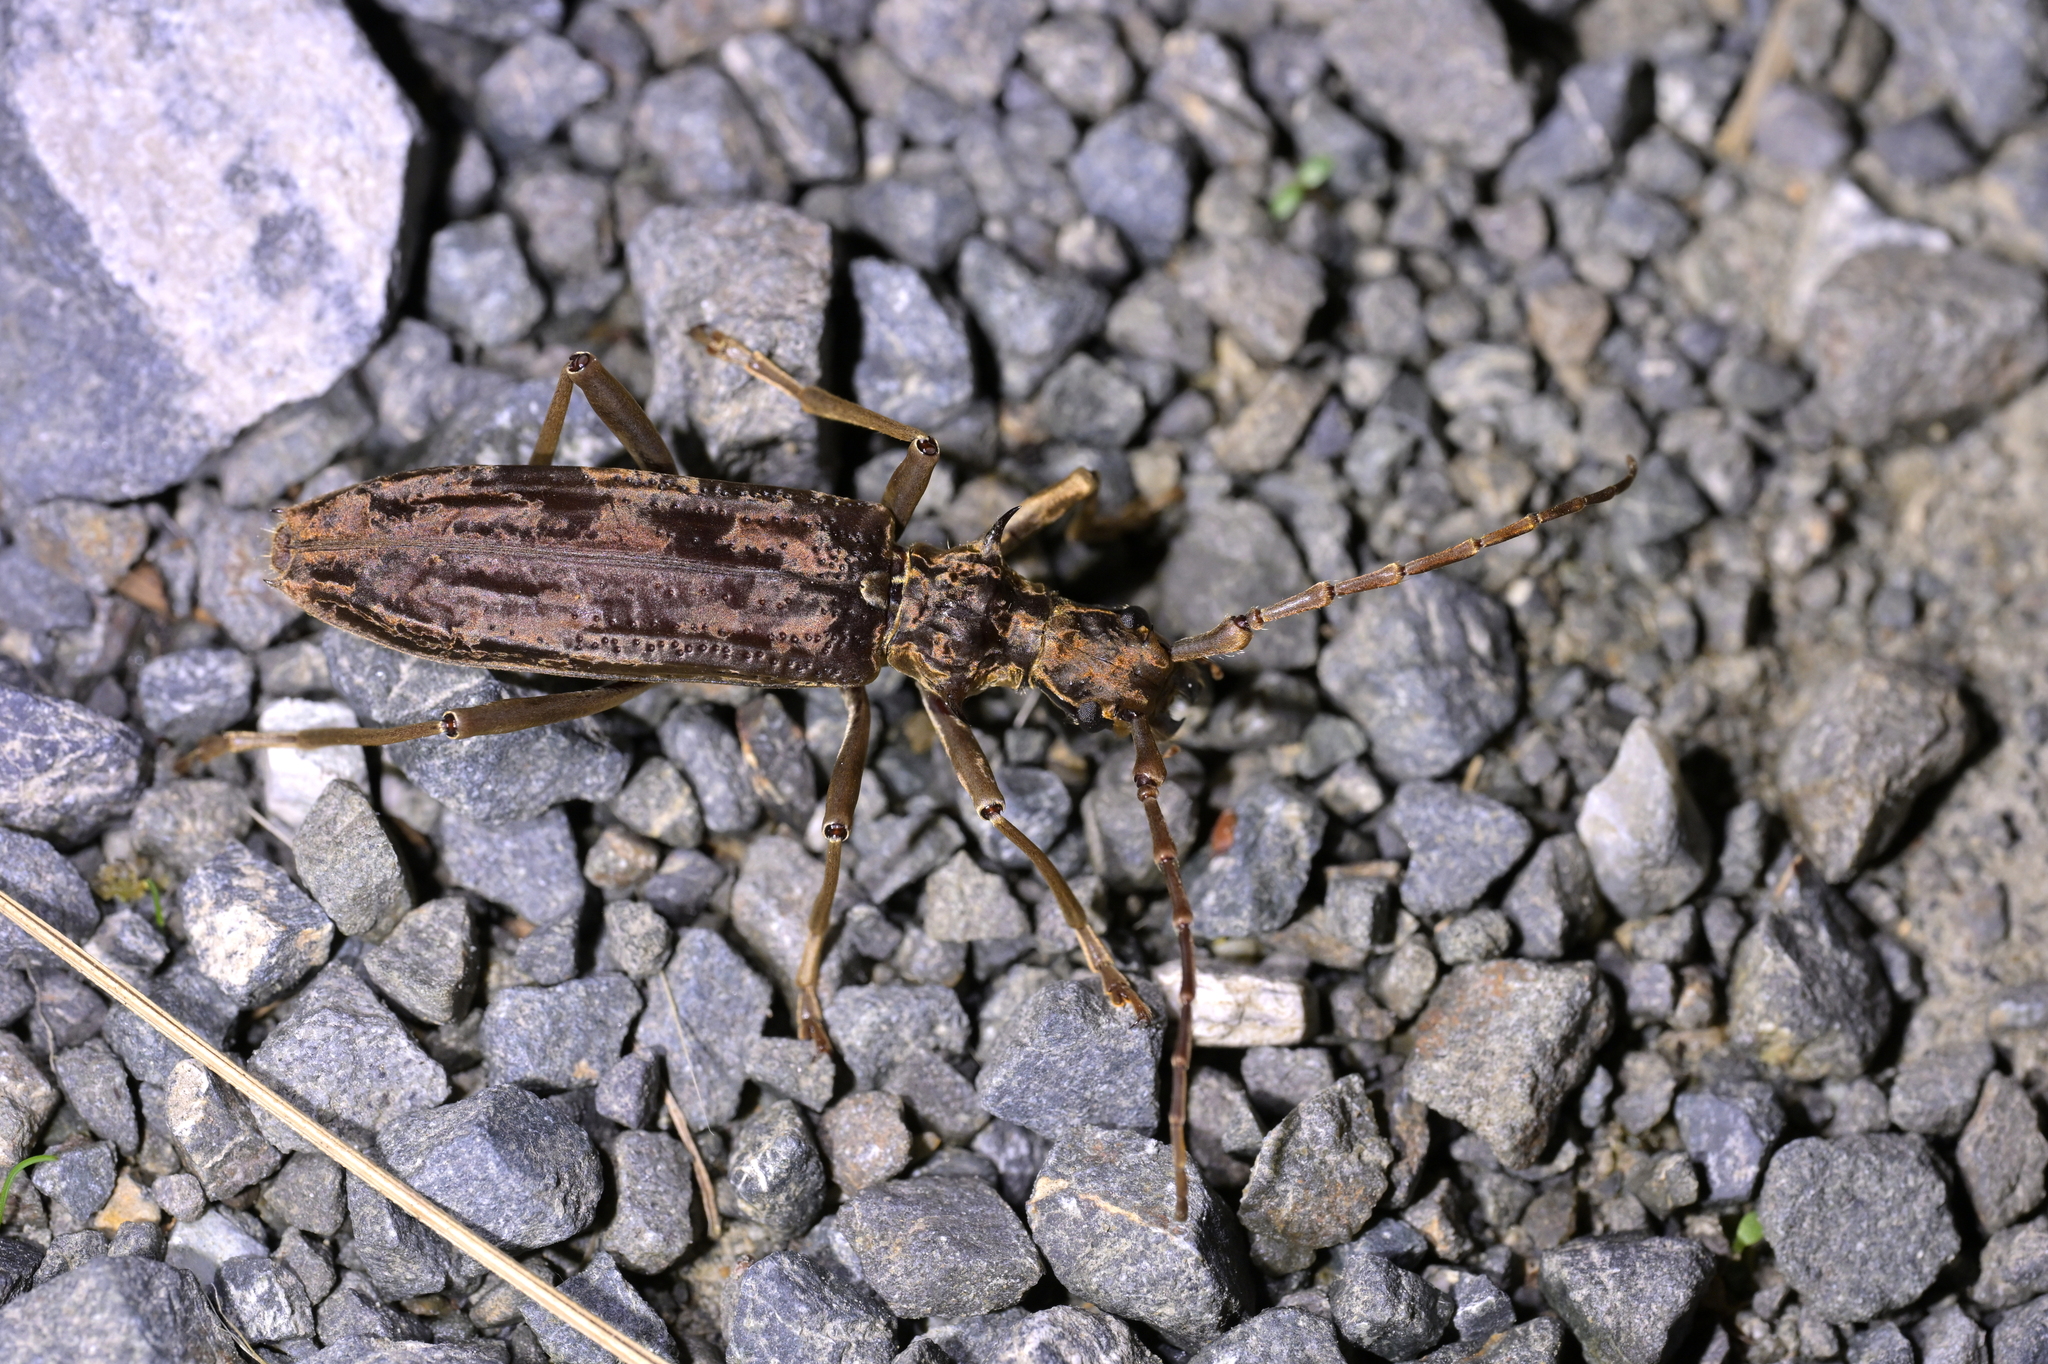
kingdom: Animalia
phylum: Arthropoda
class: Insecta
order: Coleoptera
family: Cerambycidae
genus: Blosyropus
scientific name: Blosyropus spinosus
